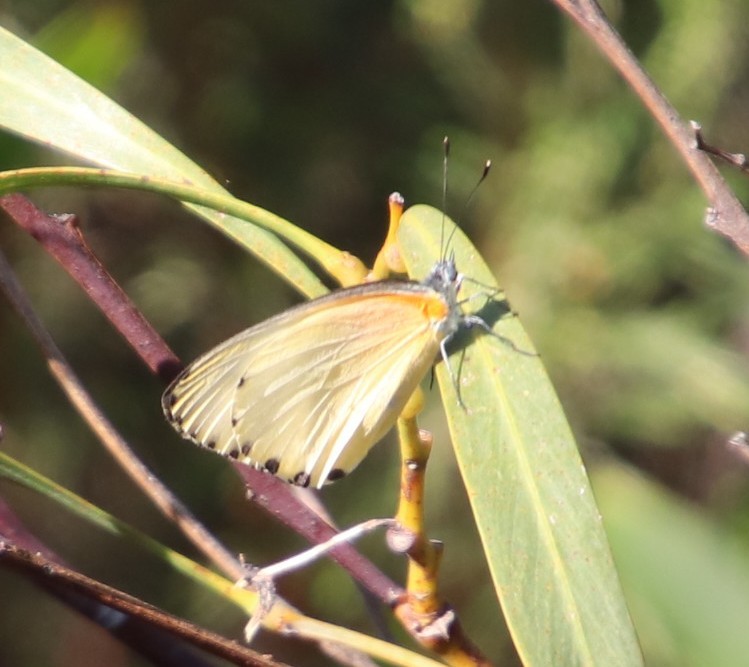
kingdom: Animalia
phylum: Arthropoda
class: Insecta
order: Lepidoptera
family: Pieridae
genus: Mylothris
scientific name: Mylothris agathina
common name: Eastern dotted border
